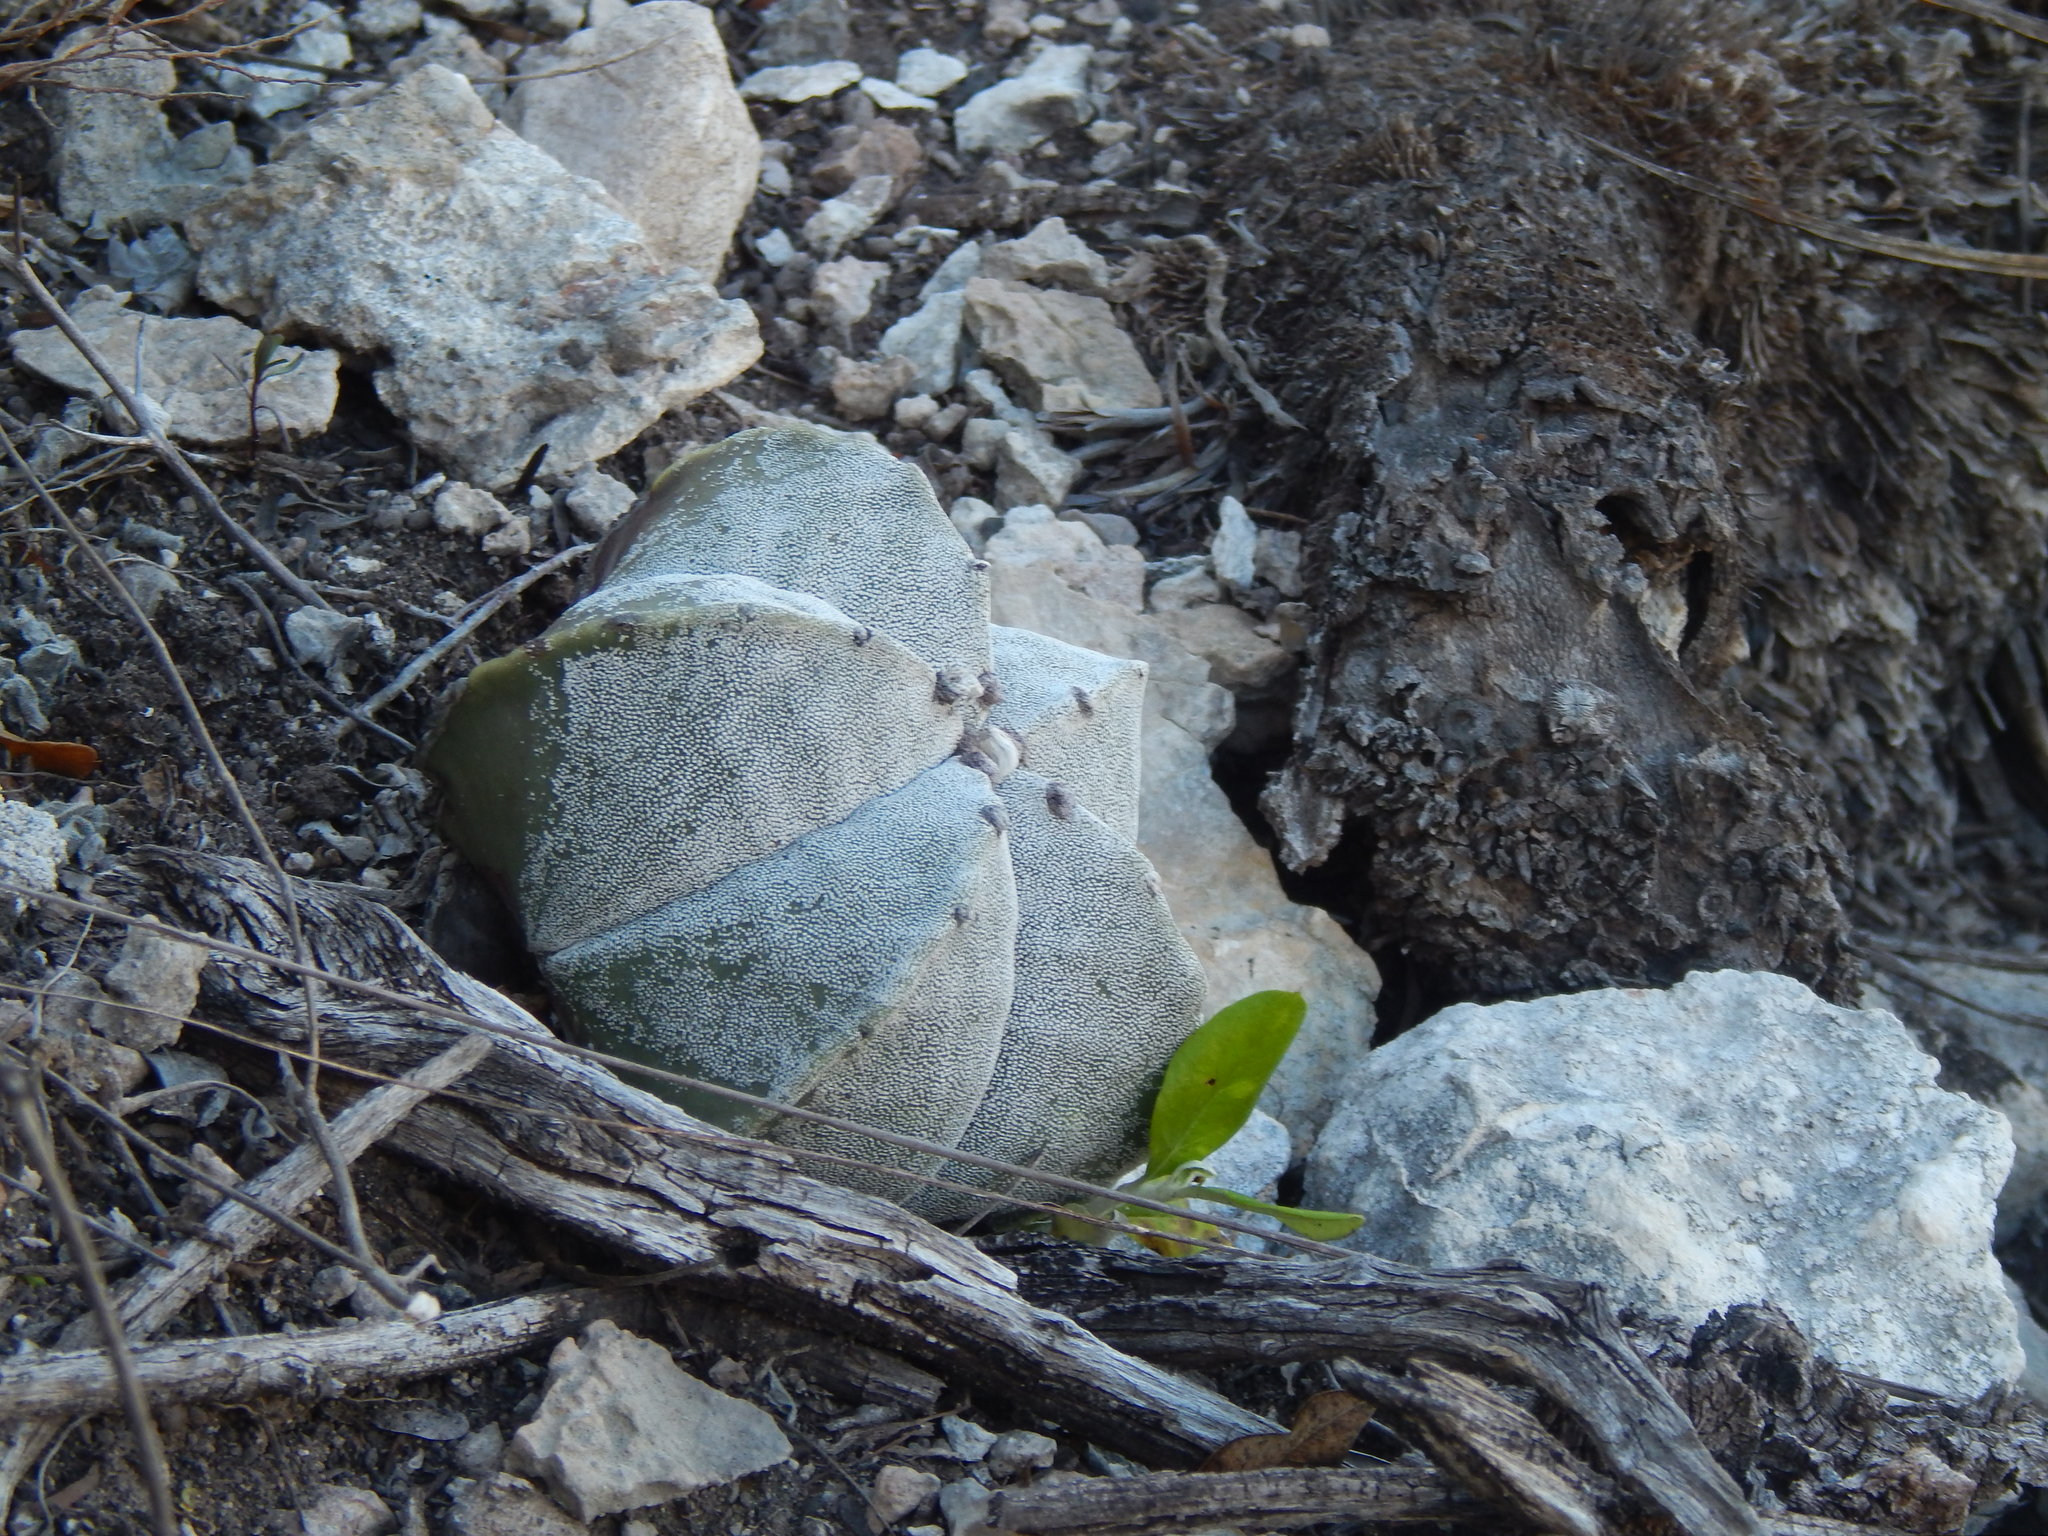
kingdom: Plantae
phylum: Tracheophyta
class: Magnoliopsida
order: Caryophyllales
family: Cactaceae
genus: Astrophytum
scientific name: Astrophytum myriostigma
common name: Bishop's-cap
